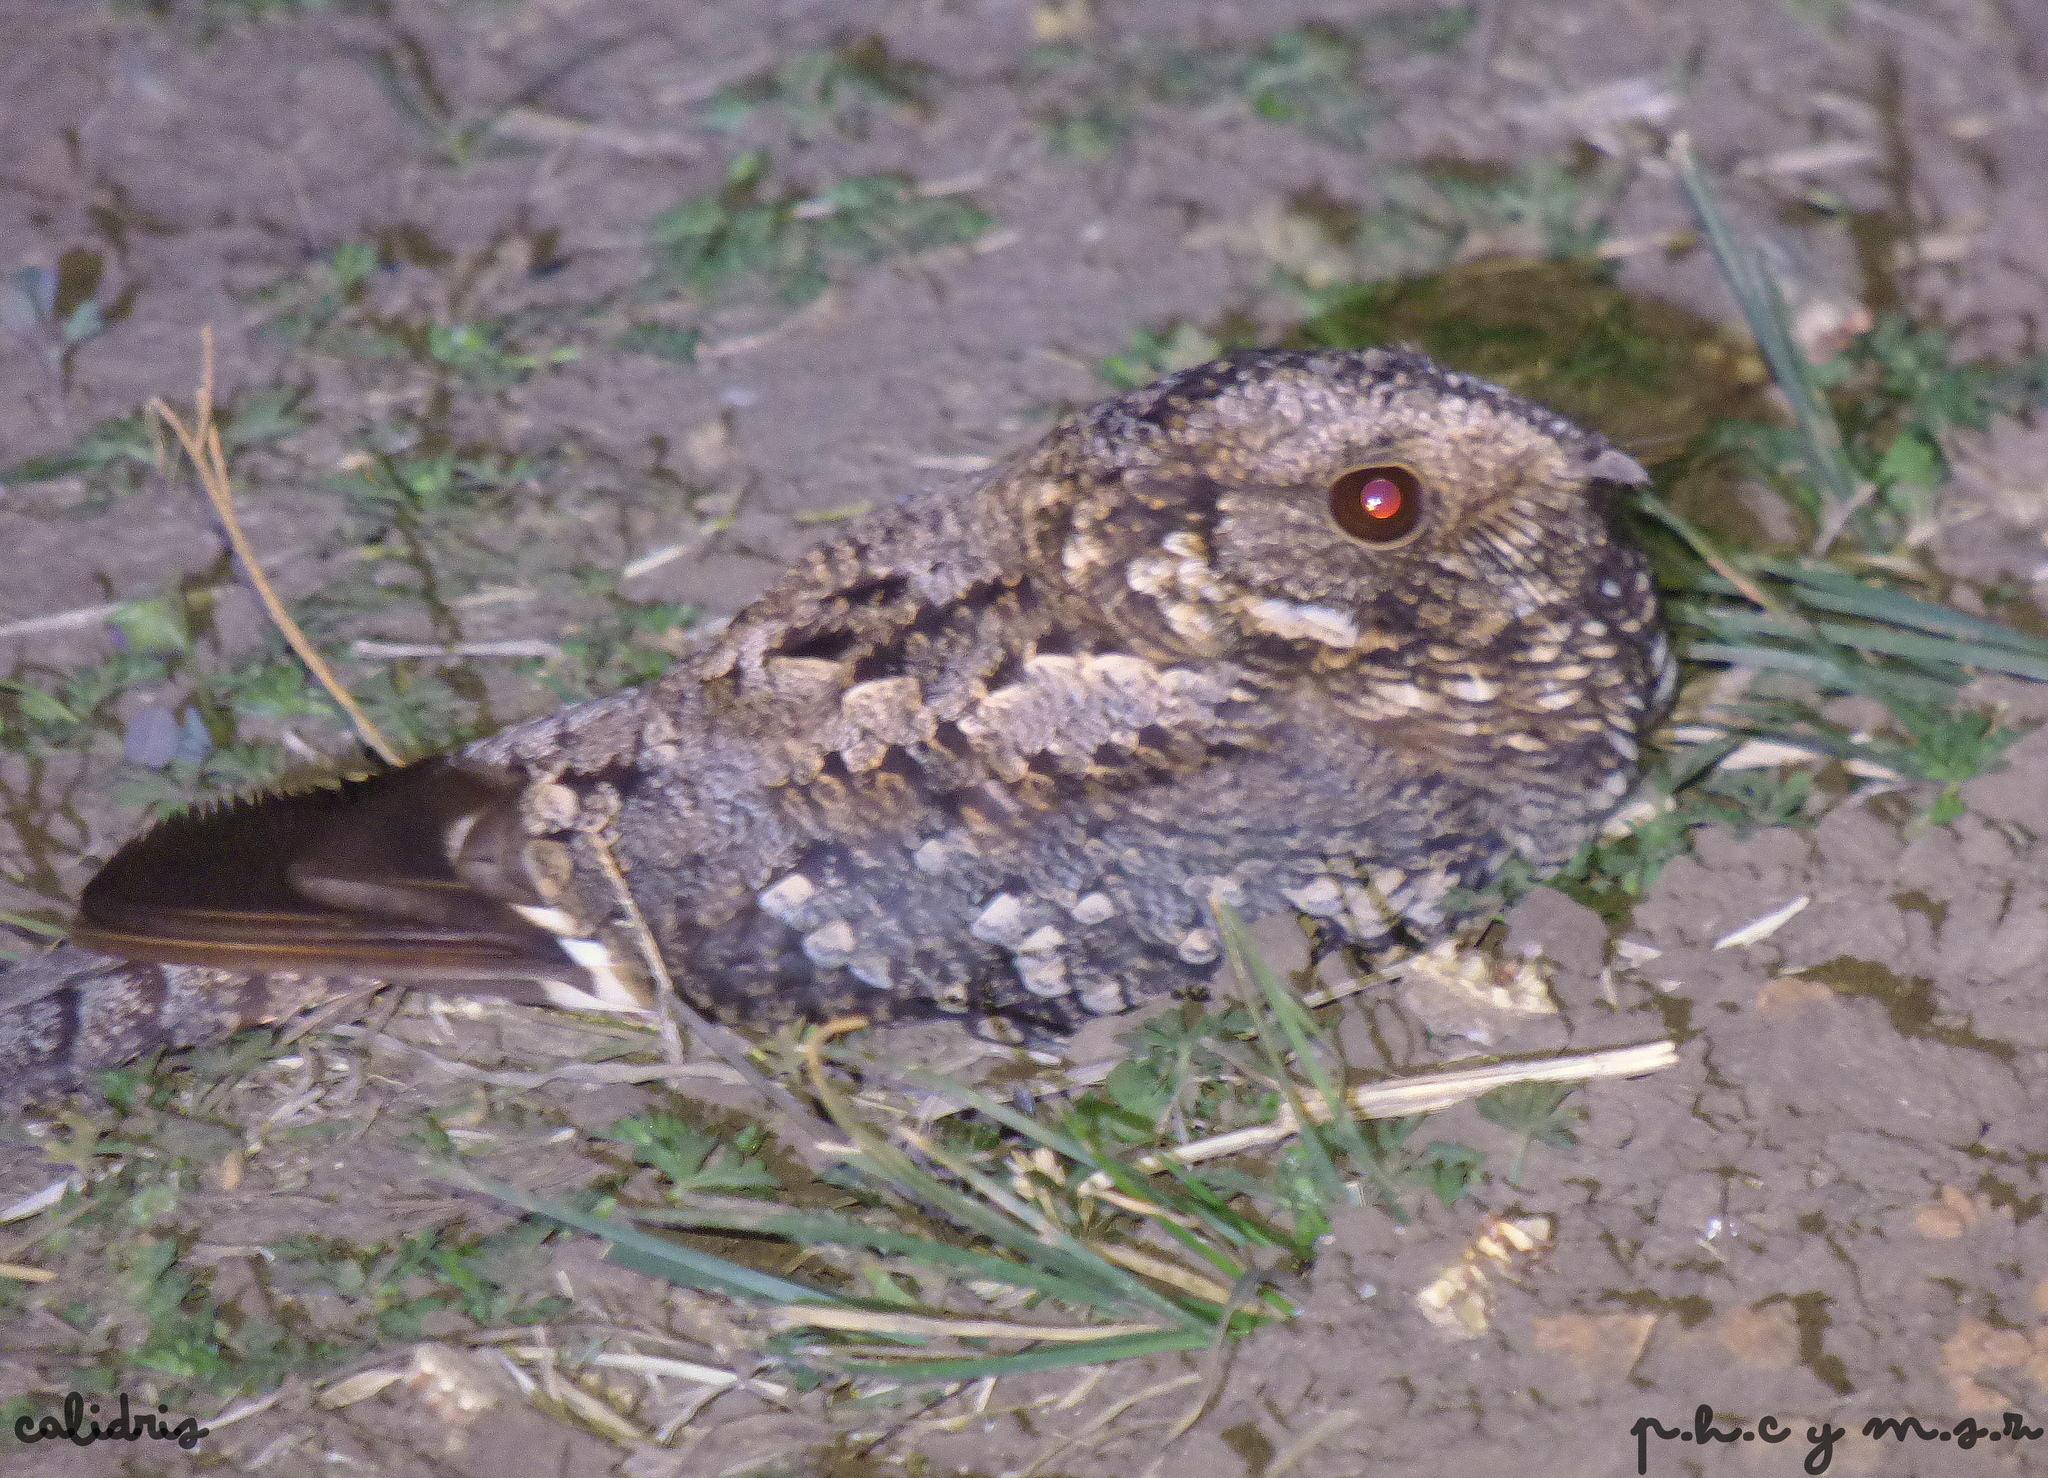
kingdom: Animalia
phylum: Chordata
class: Aves
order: Caprimulgiformes
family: Caprimulgidae
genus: Systellura
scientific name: Systellura longirostris
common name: Band-winged nightjar
